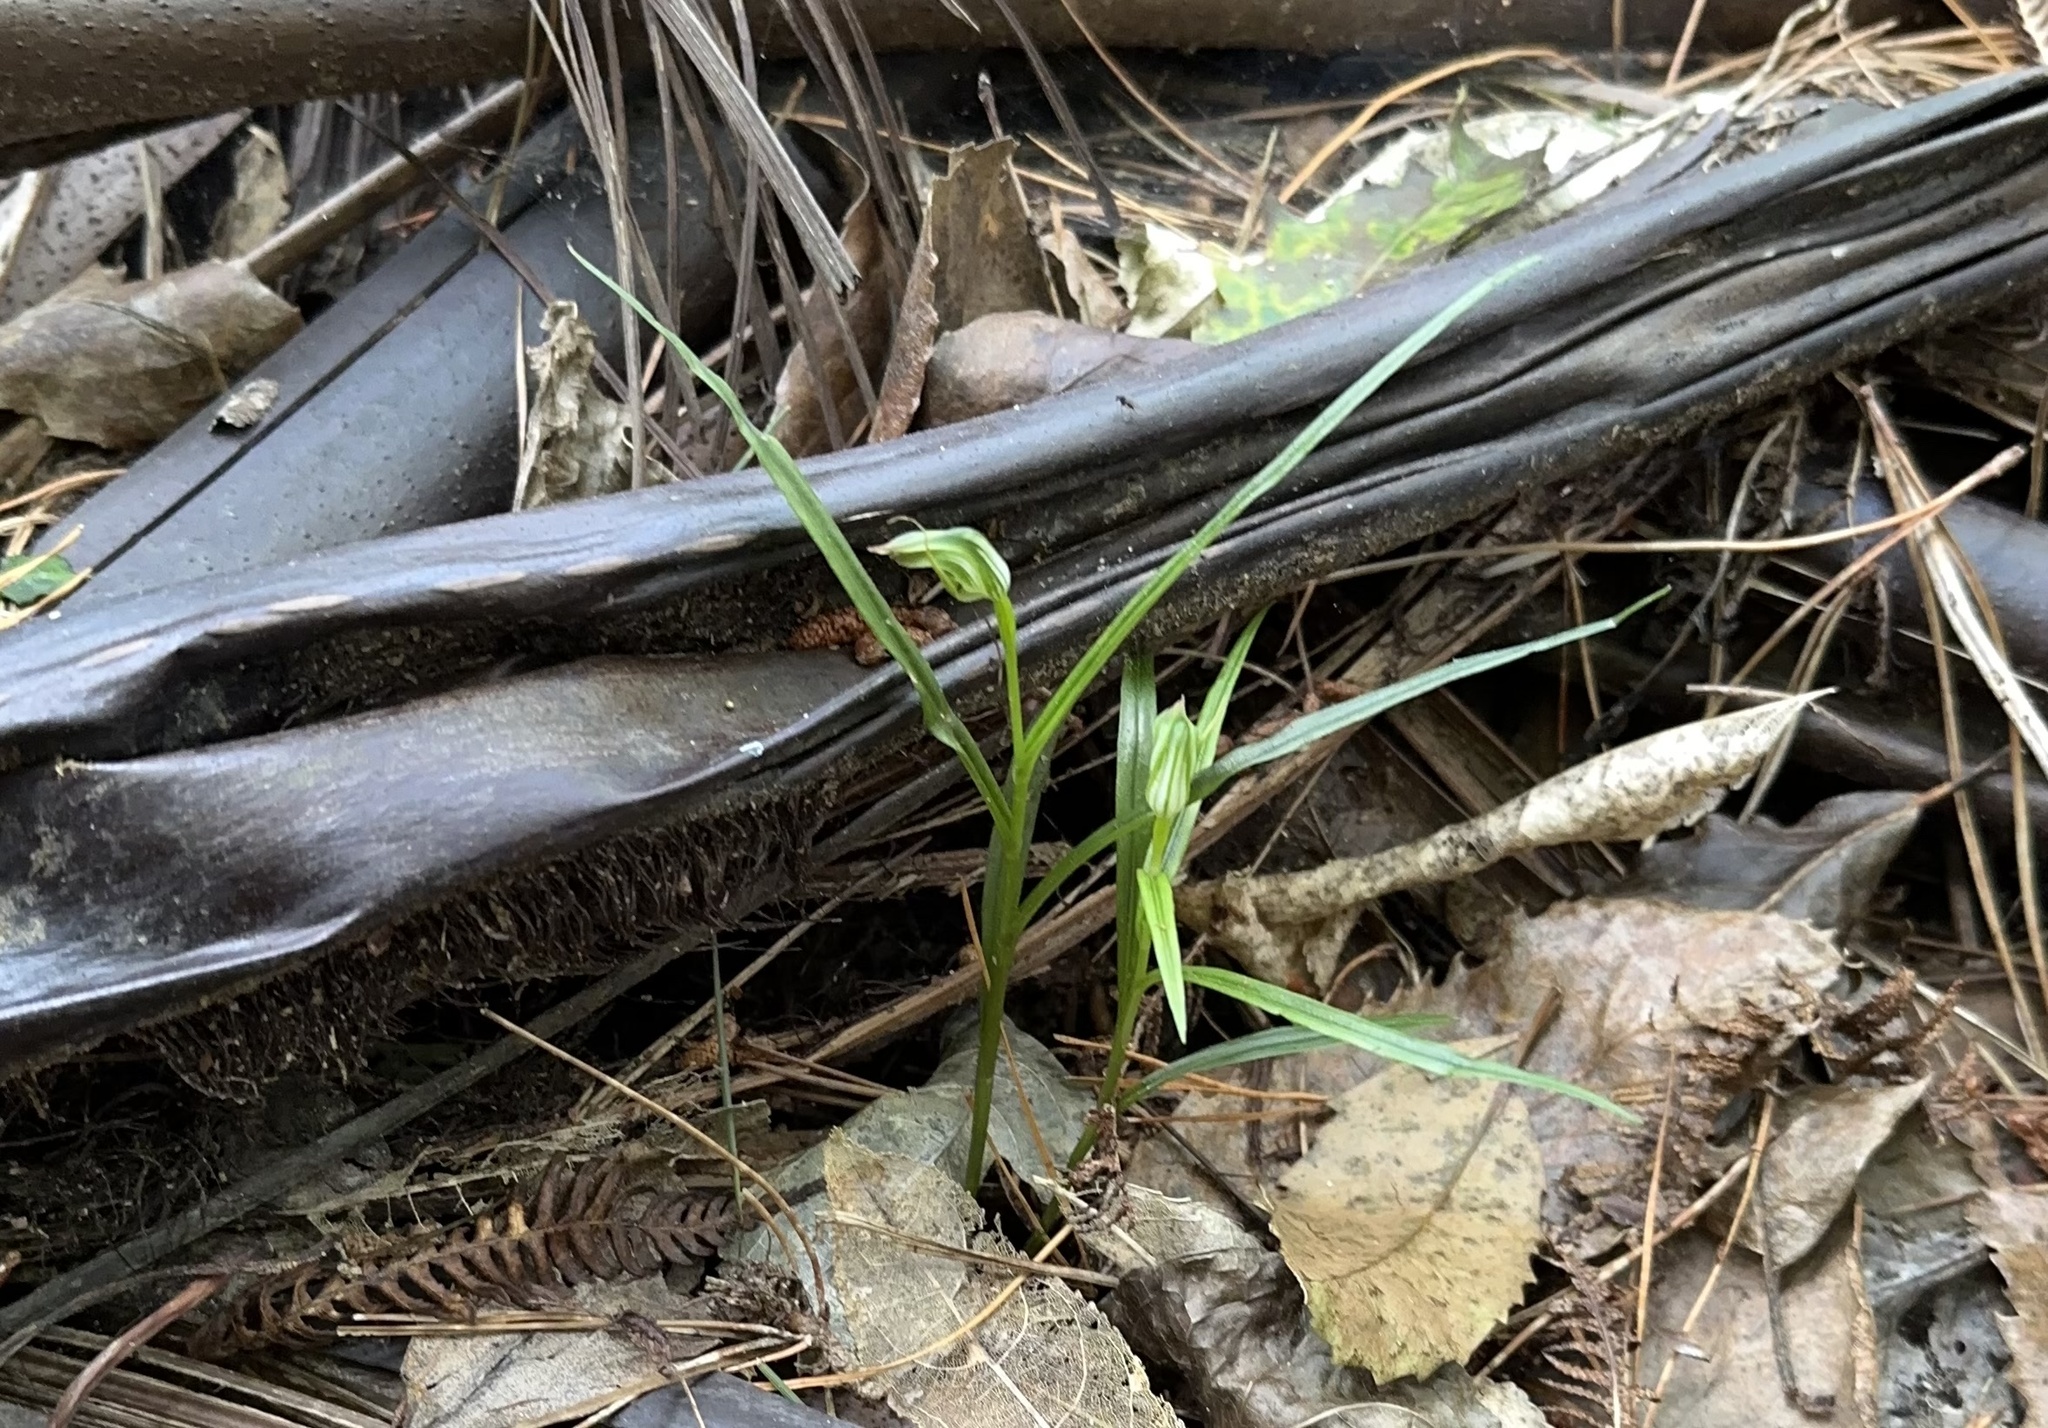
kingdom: Plantae
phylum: Tracheophyta
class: Liliopsida
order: Asparagales
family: Orchidaceae
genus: Pterostylis
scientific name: Pterostylis graminea
